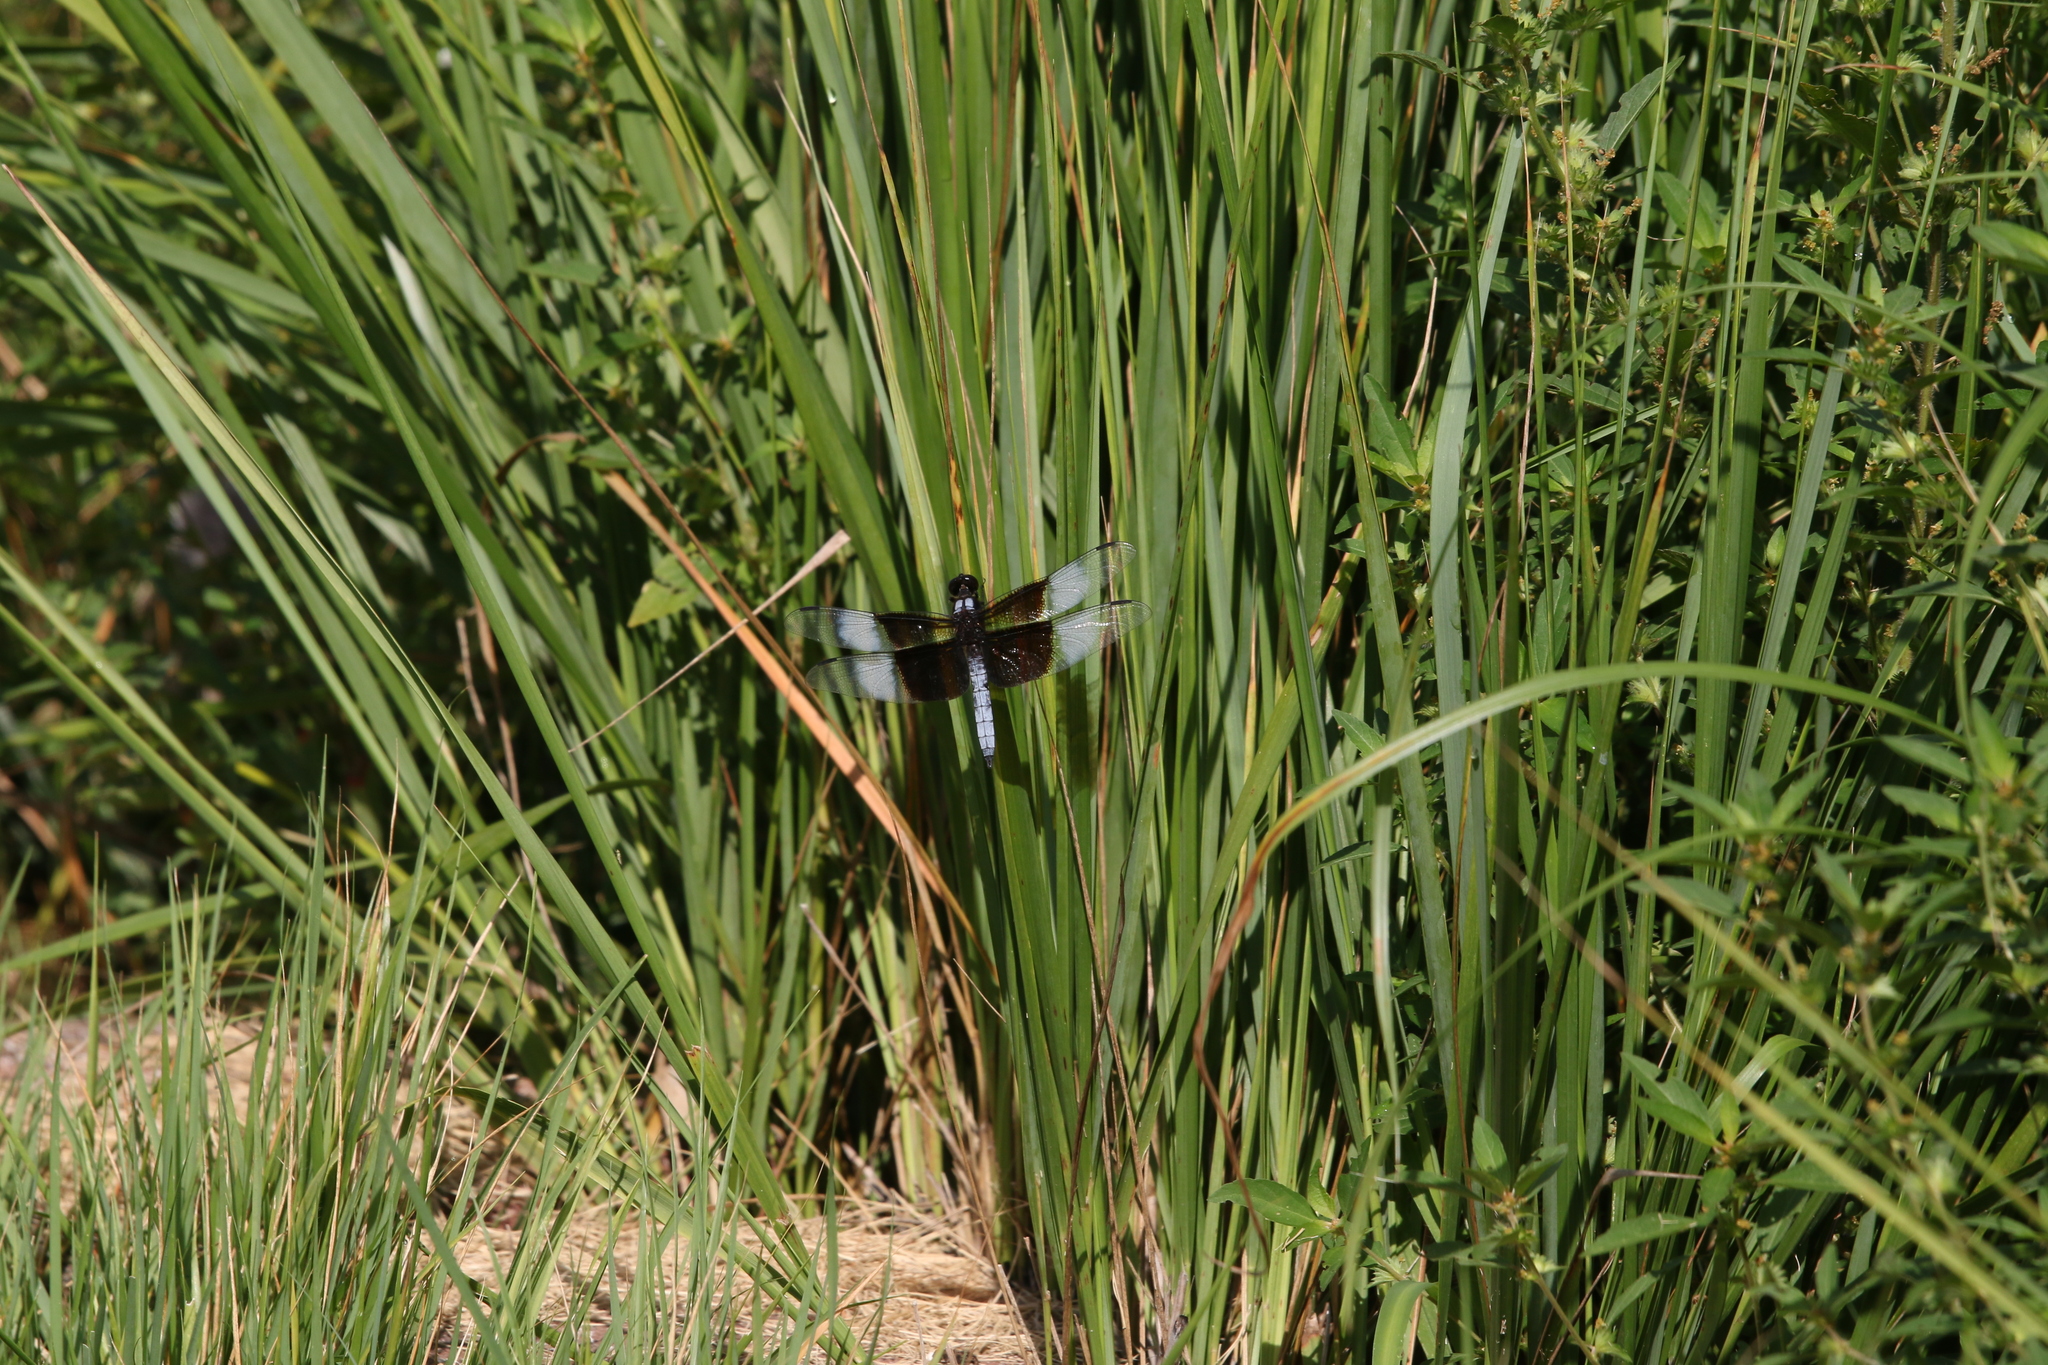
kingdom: Animalia
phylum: Arthropoda
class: Insecta
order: Odonata
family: Libellulidae
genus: Libellula
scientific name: Libellula luctuosa
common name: Widow skimmer
